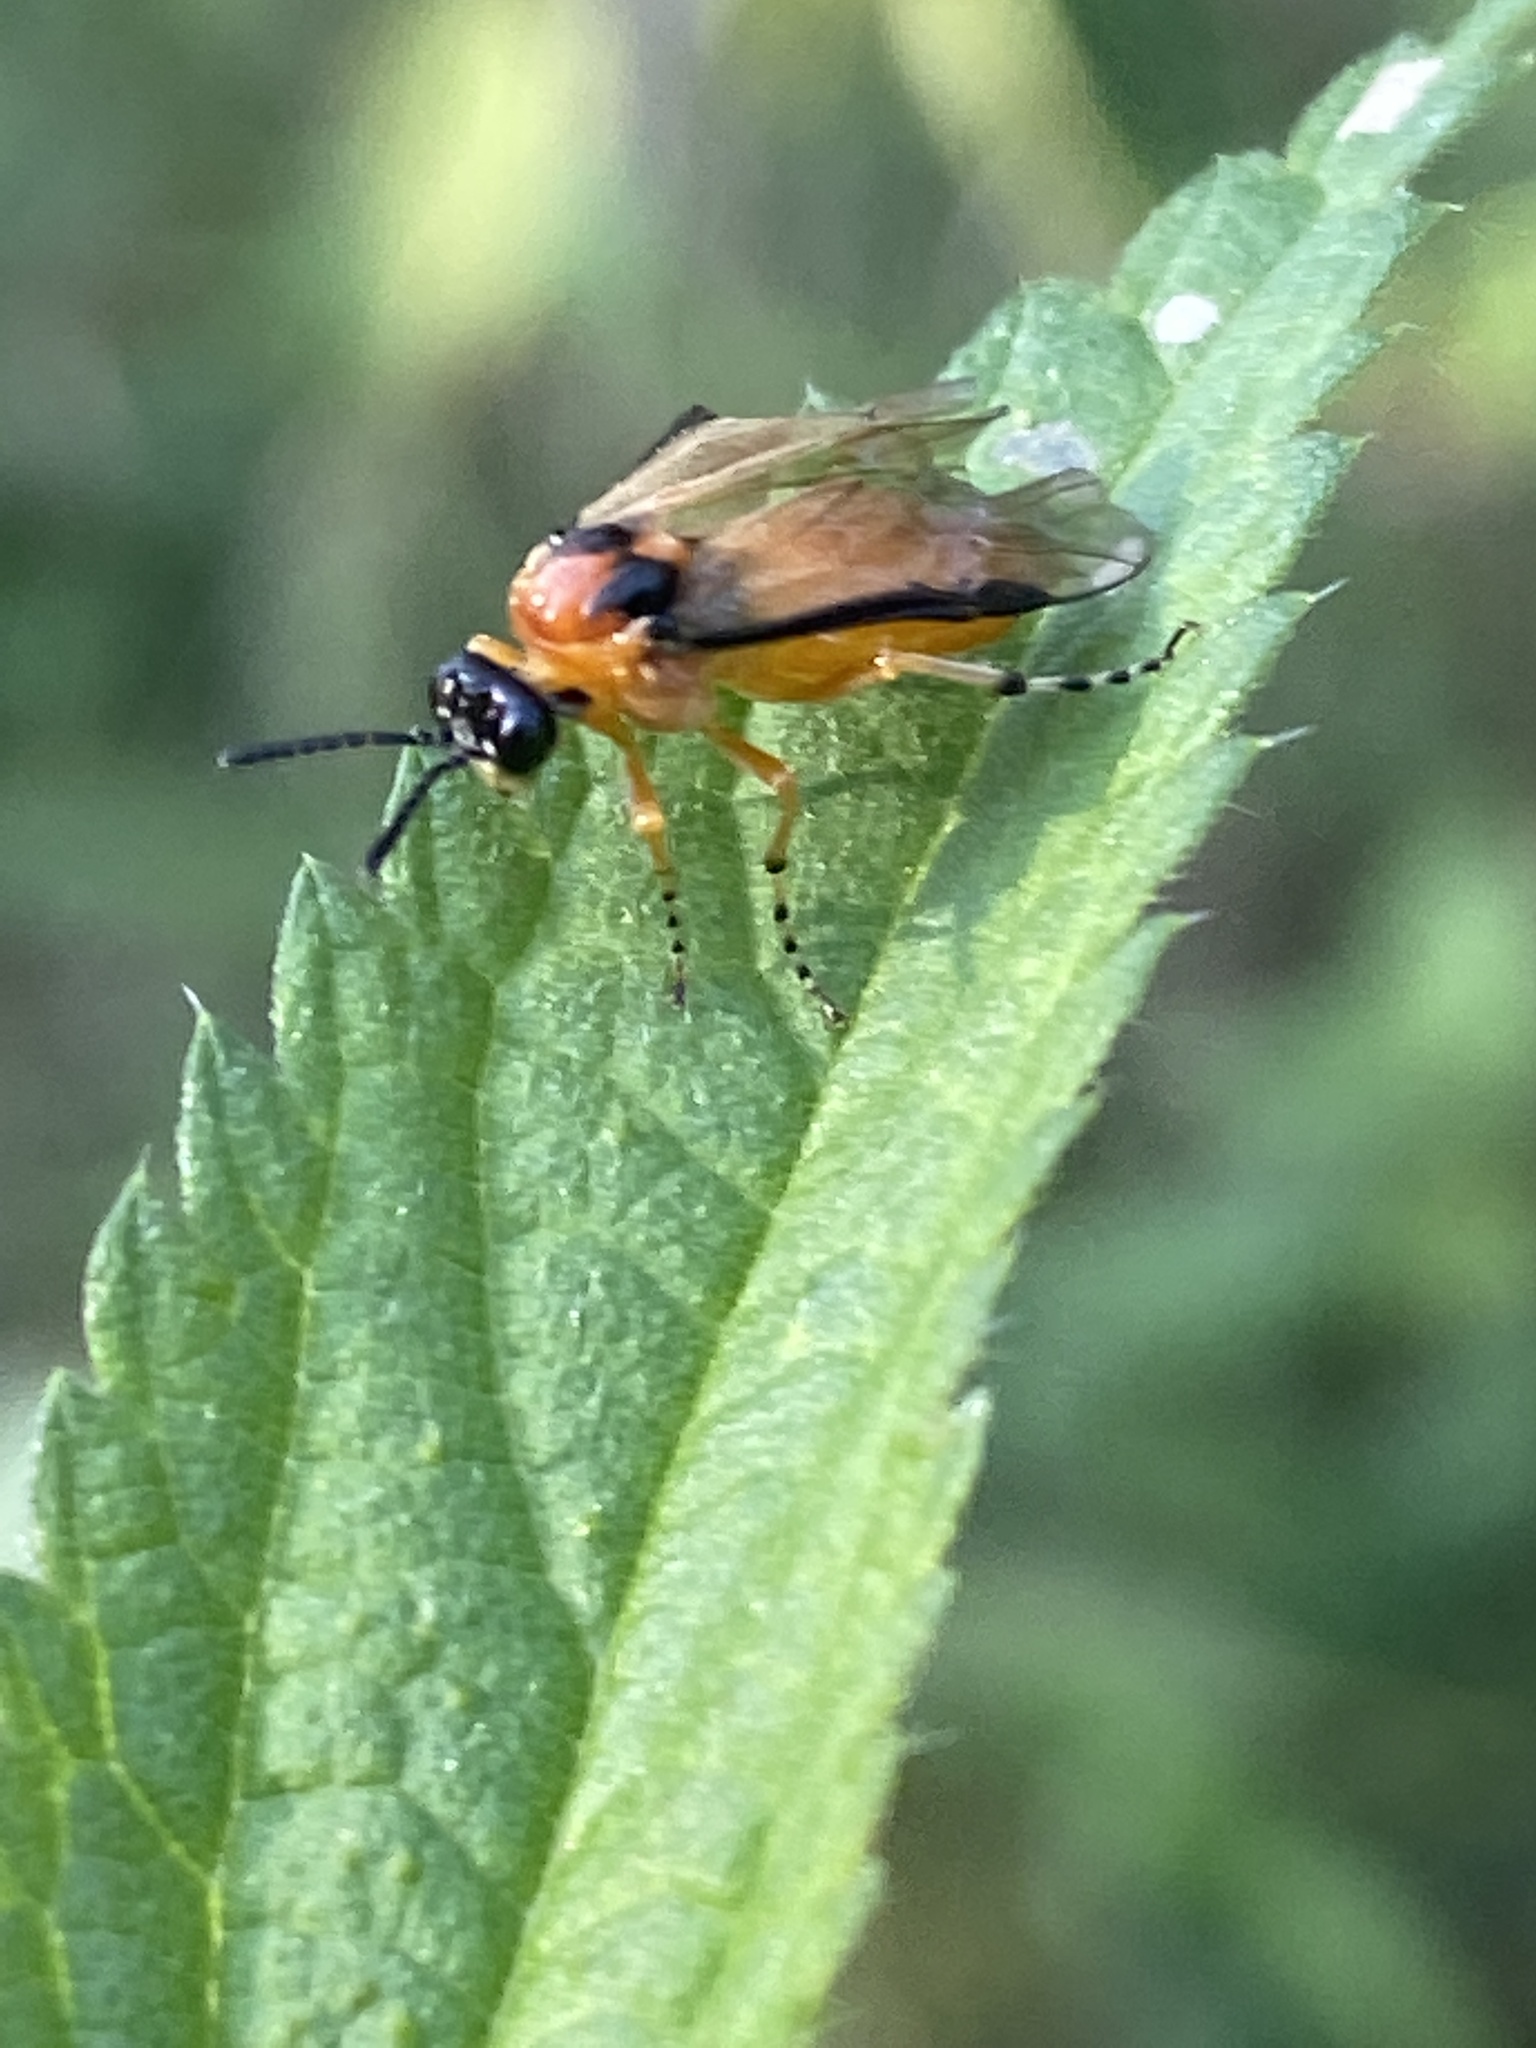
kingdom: Animalia
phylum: Arthropoda
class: Insecta
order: Hymenoptera
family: Tenthredinidae
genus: Athalia
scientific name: Athalia rosae
